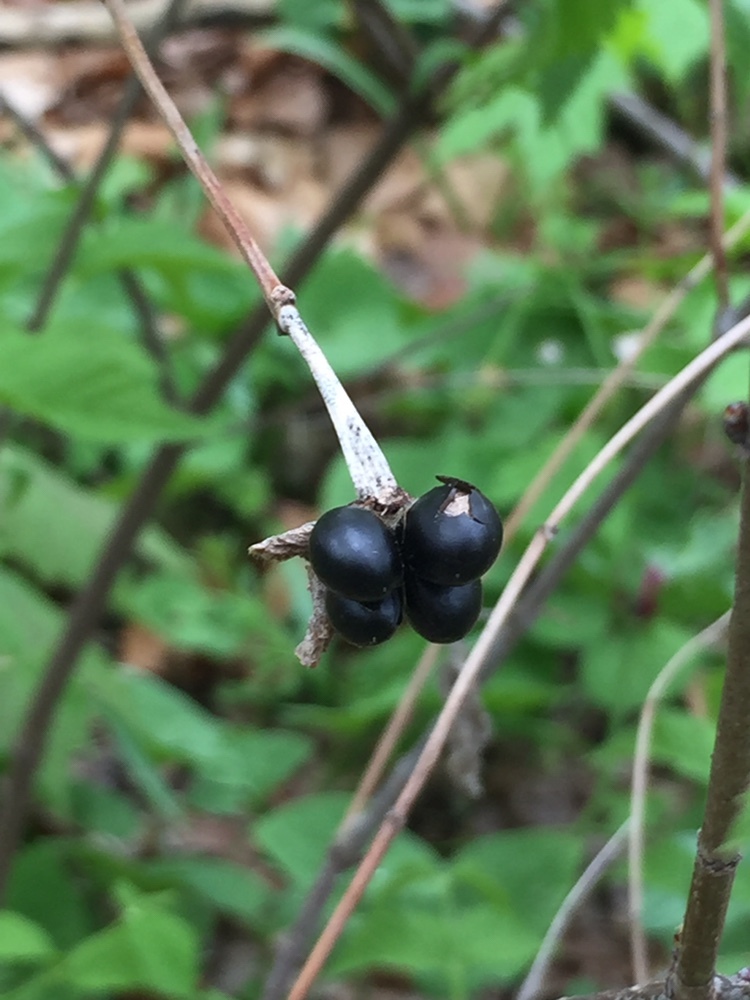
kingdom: Plantae
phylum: Tracheophyta
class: Magnoliopsida
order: Rosales
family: Rosaceae
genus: Rhodotypos
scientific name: Rhodotypos scandens
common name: Jetbead
